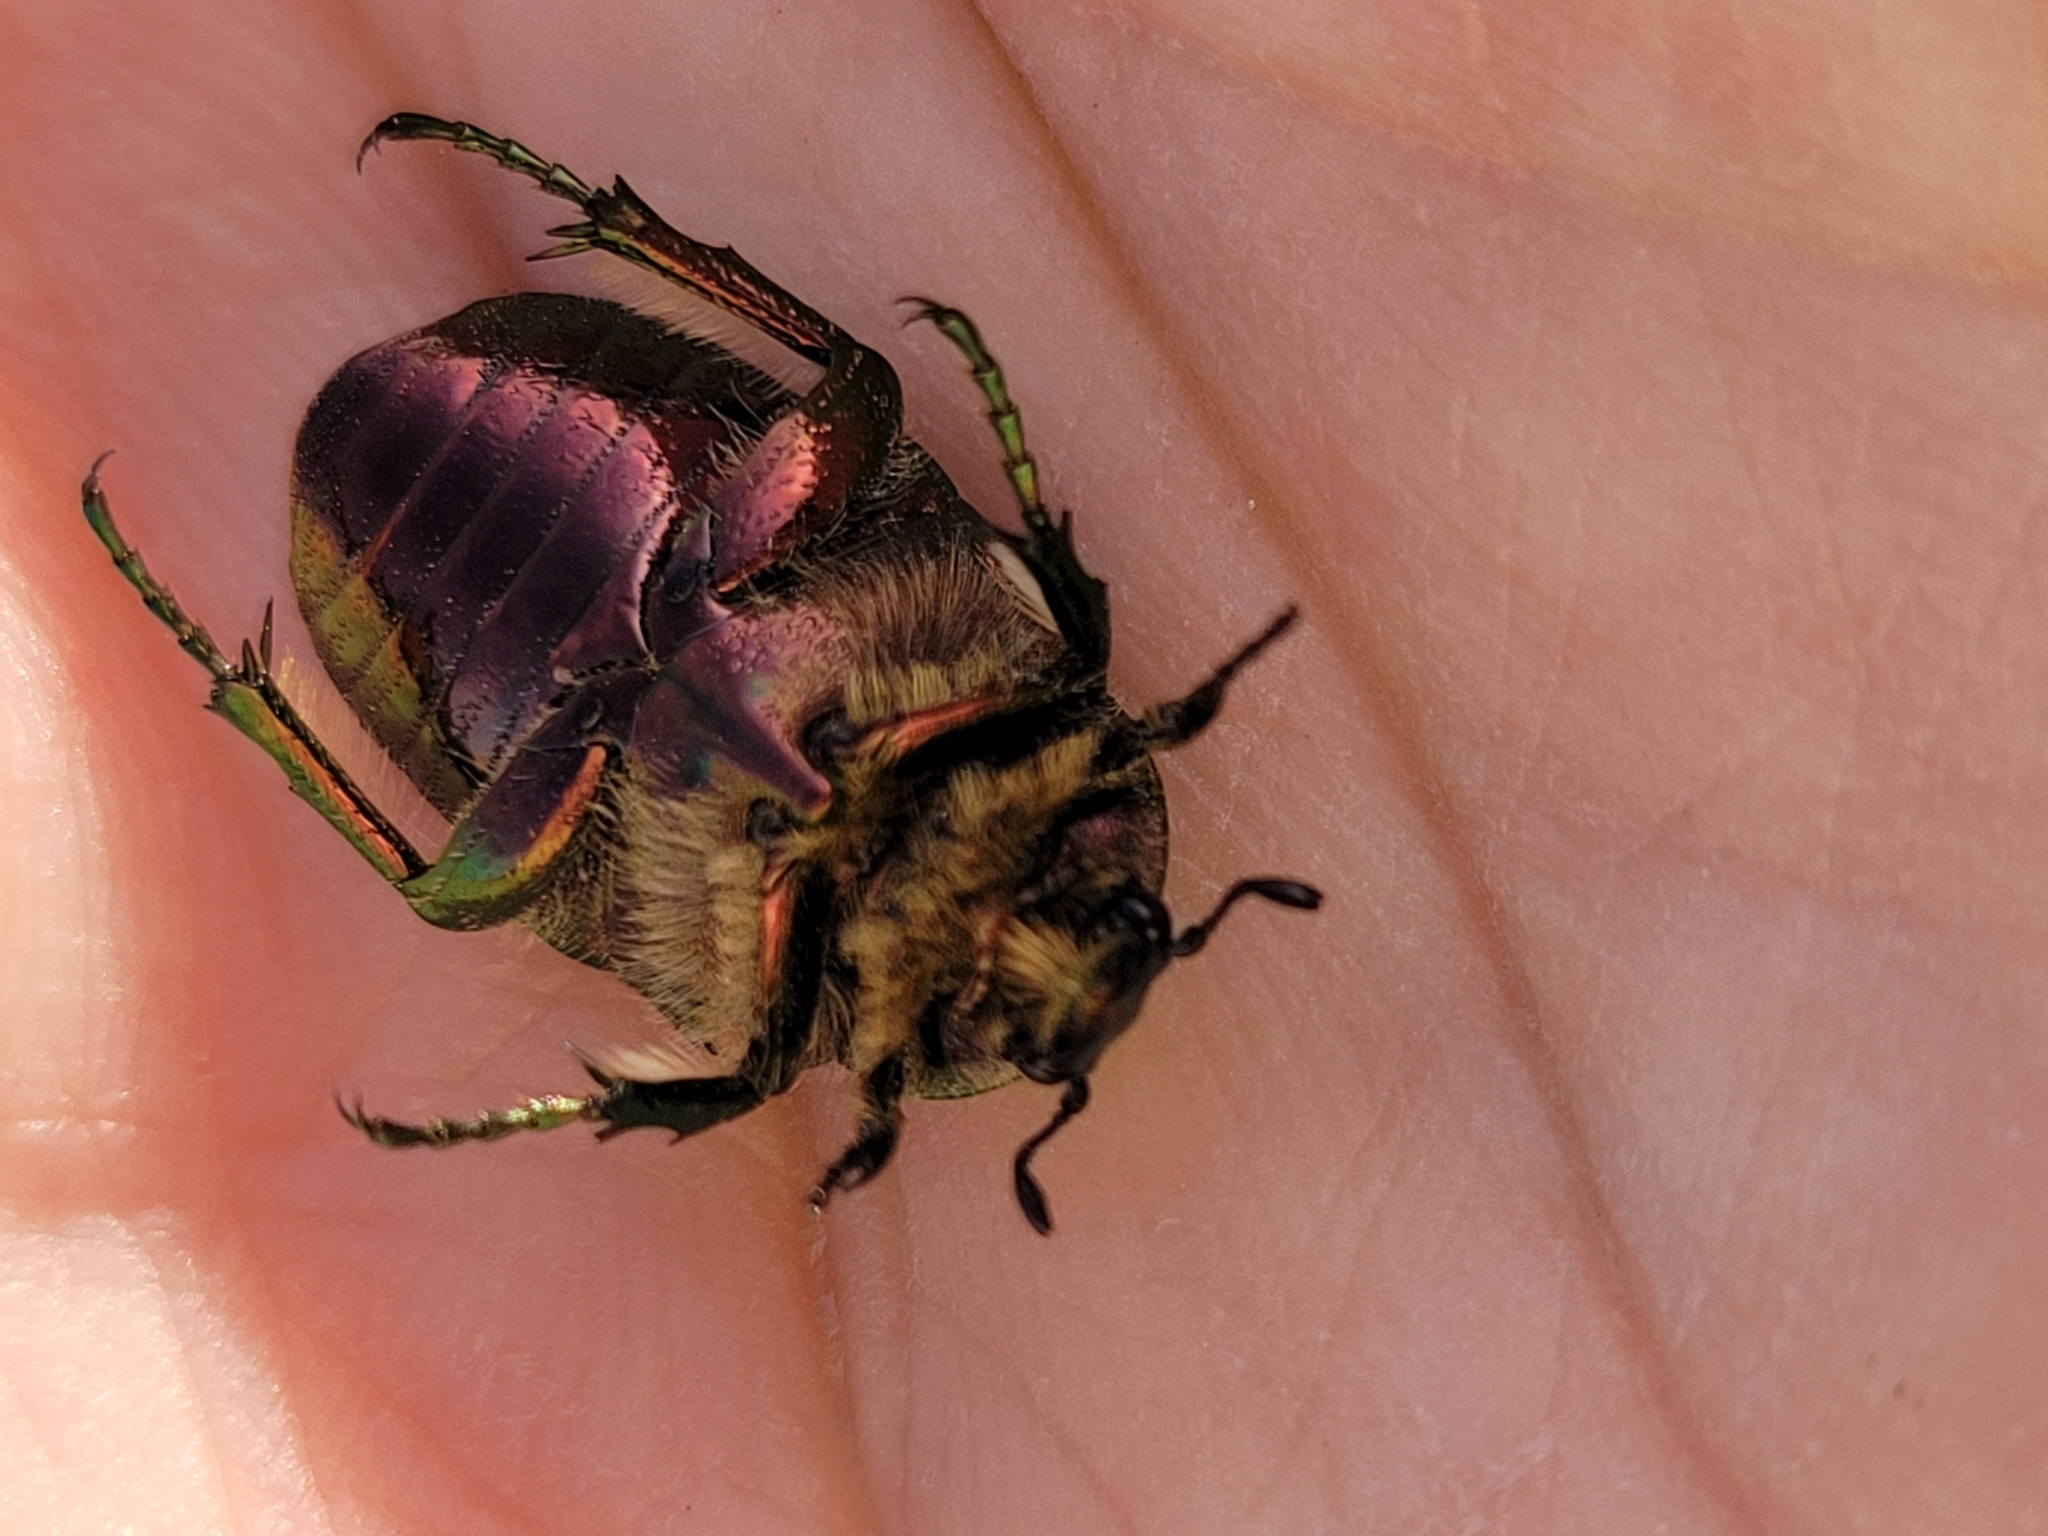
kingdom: Animalia
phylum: Arthropoda
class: Insecta
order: Coleoptera
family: Scarabaeidae
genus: Cetonia
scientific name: Cetonia aurata
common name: Rose chafer
